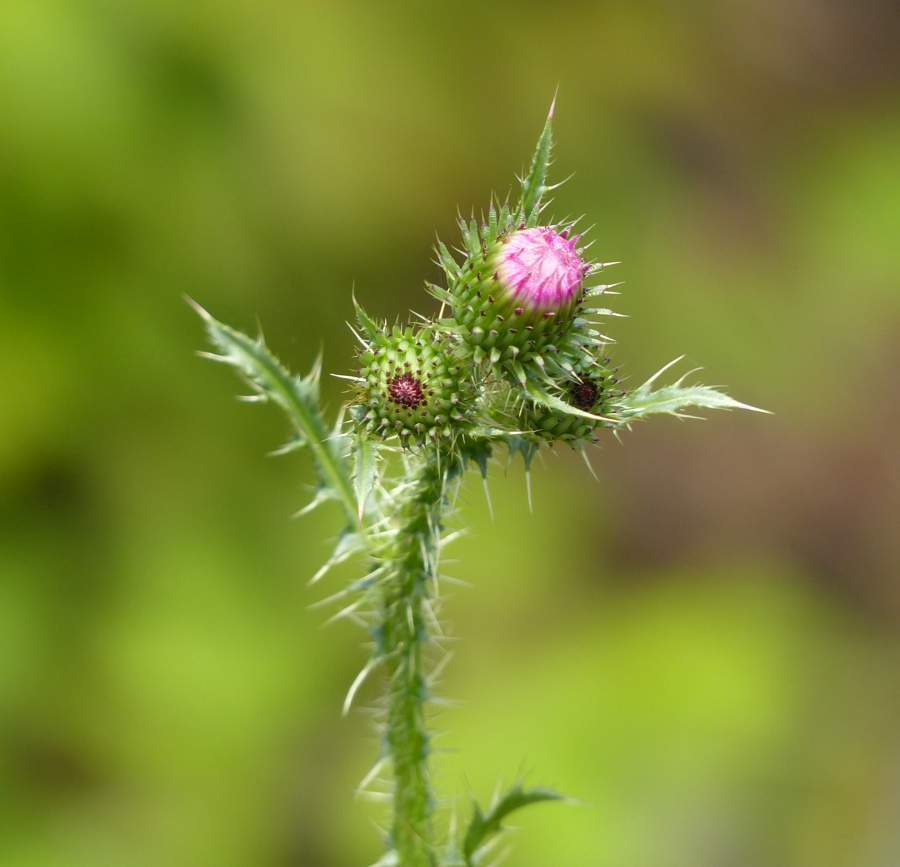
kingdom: Plantae
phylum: Tracheophyta
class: Magnoliopsida
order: Asterales
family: Asteraceae
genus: Carduus
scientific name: Carduus acanthoides
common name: Plumeless thistle
